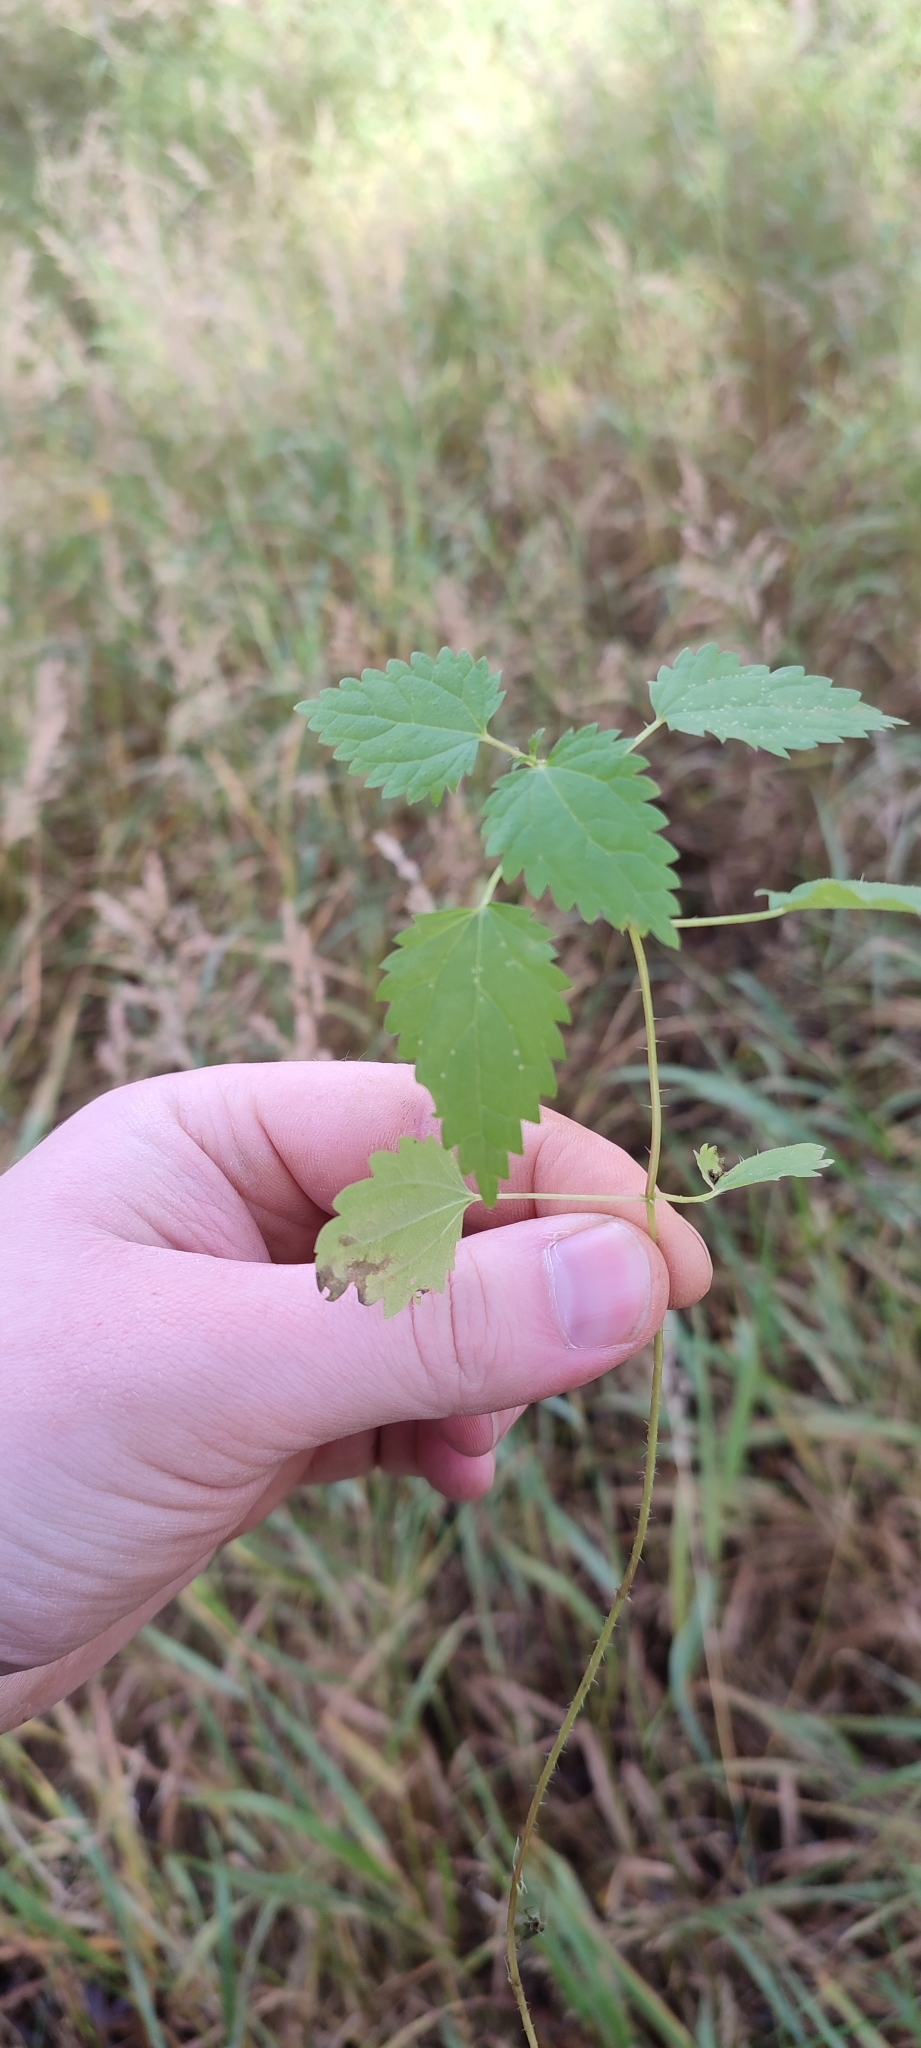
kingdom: Plantae
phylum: Tracheophyta
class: Magnoliopsida
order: Rosales
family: Urticaceae
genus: Urtica
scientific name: Urtica dioica
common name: Common nettle
